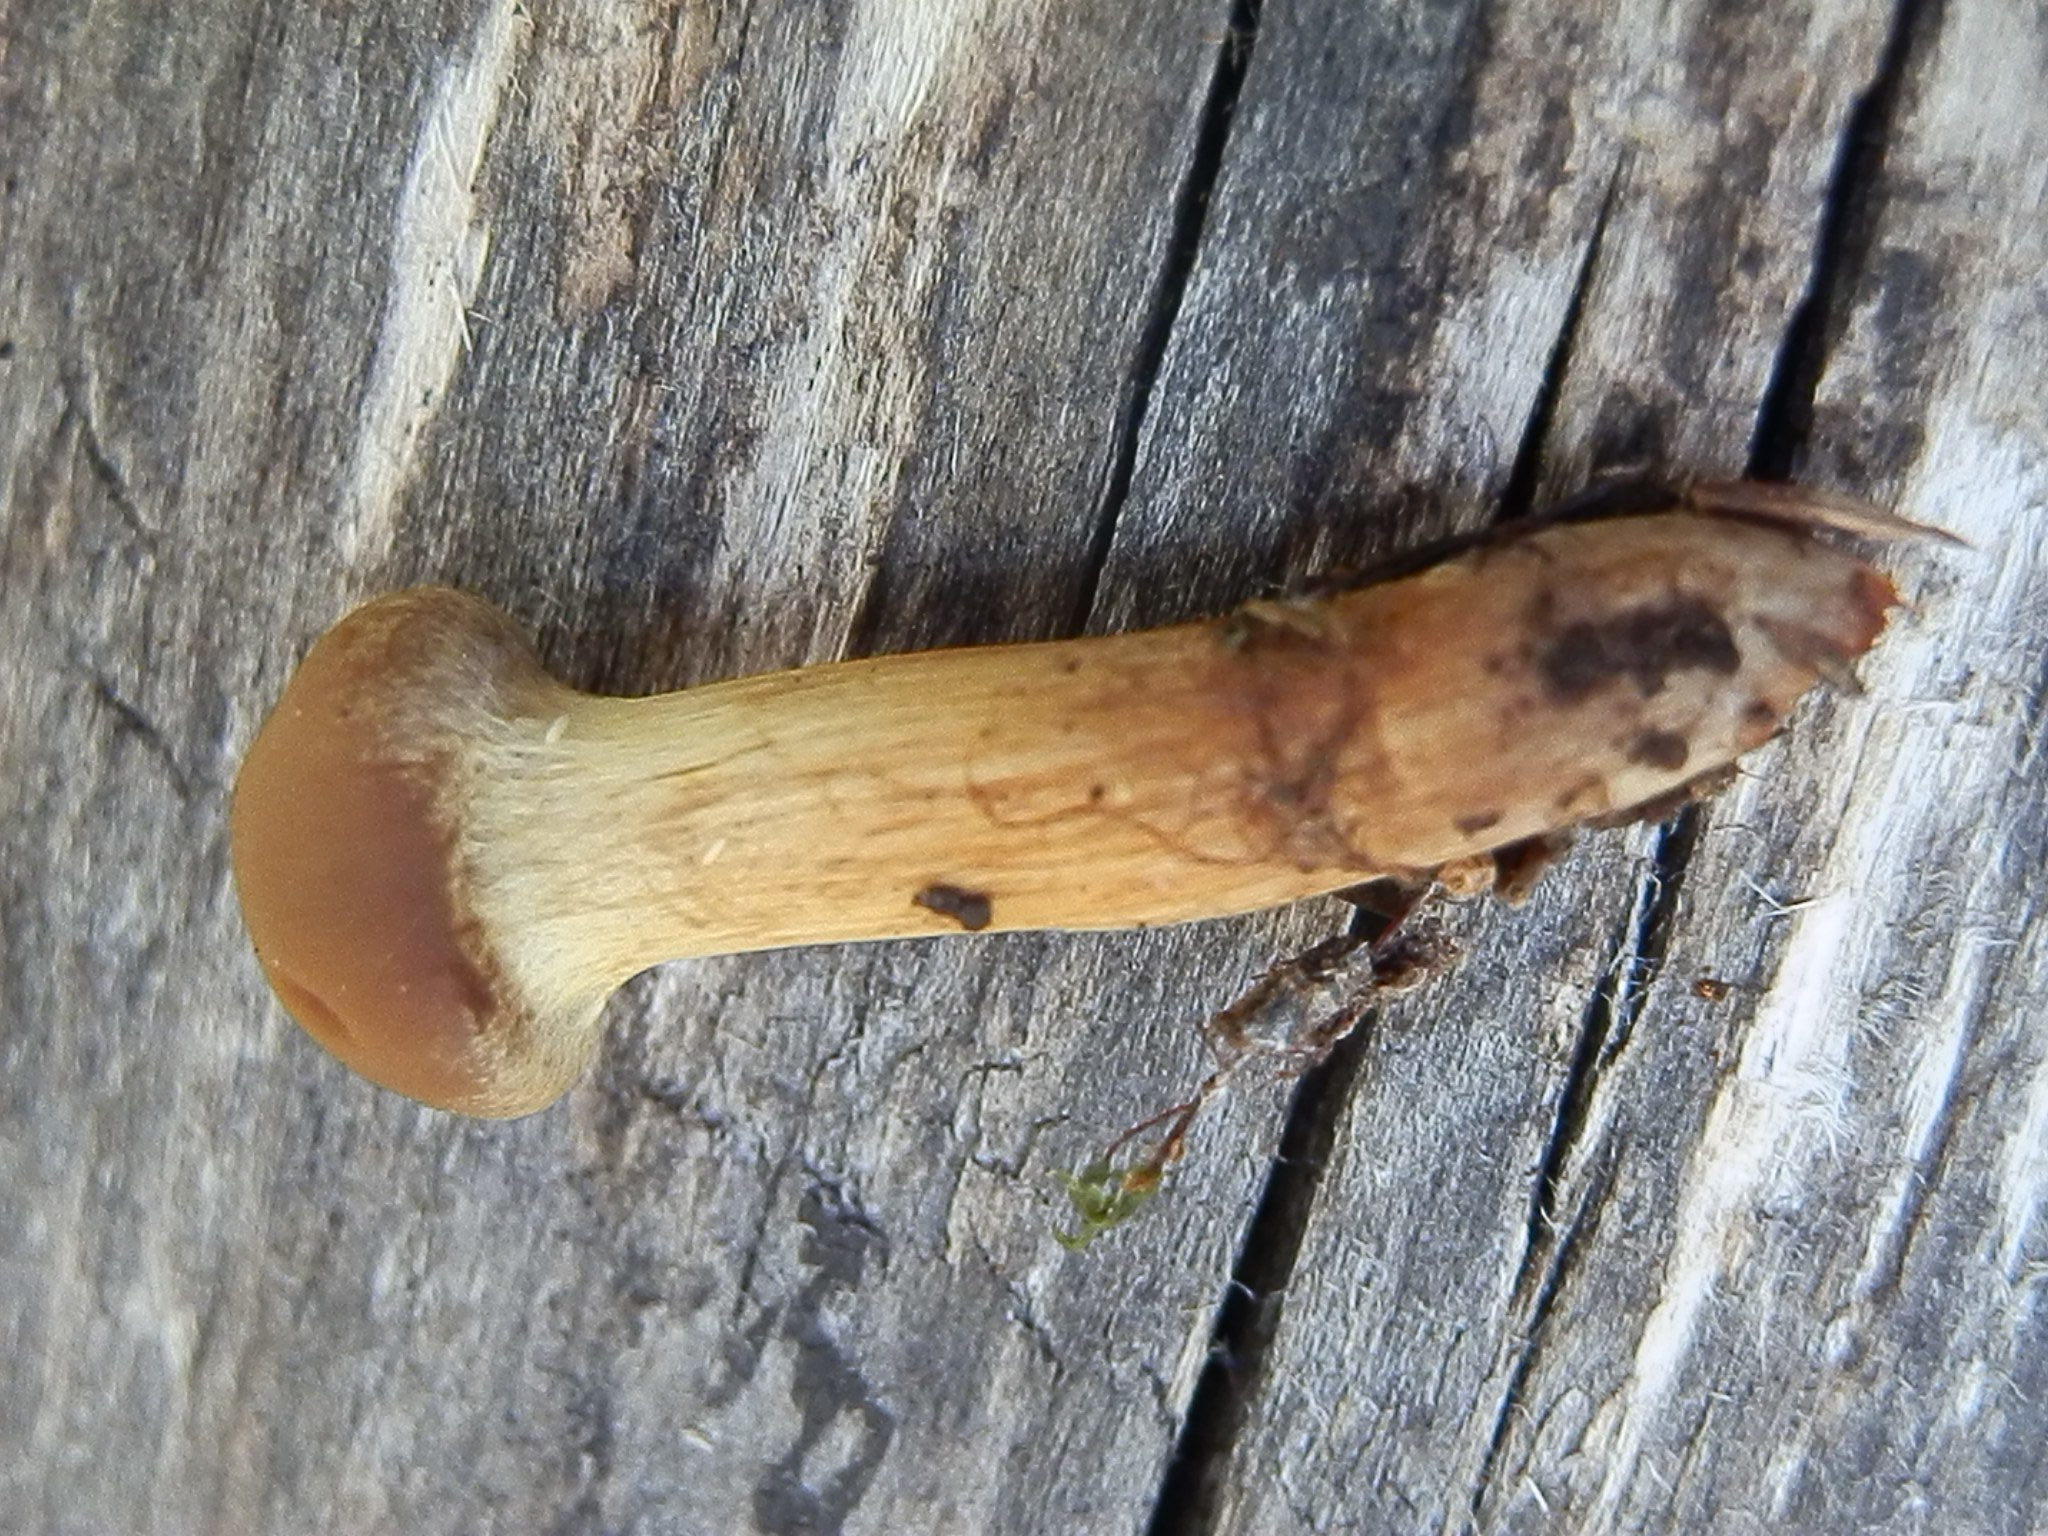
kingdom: Fungi
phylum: Basidiomycota
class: Agaricomycetes
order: Agaricales
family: Cortinariaceae
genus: Cortinarius
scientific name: Cortinarius thiersii
